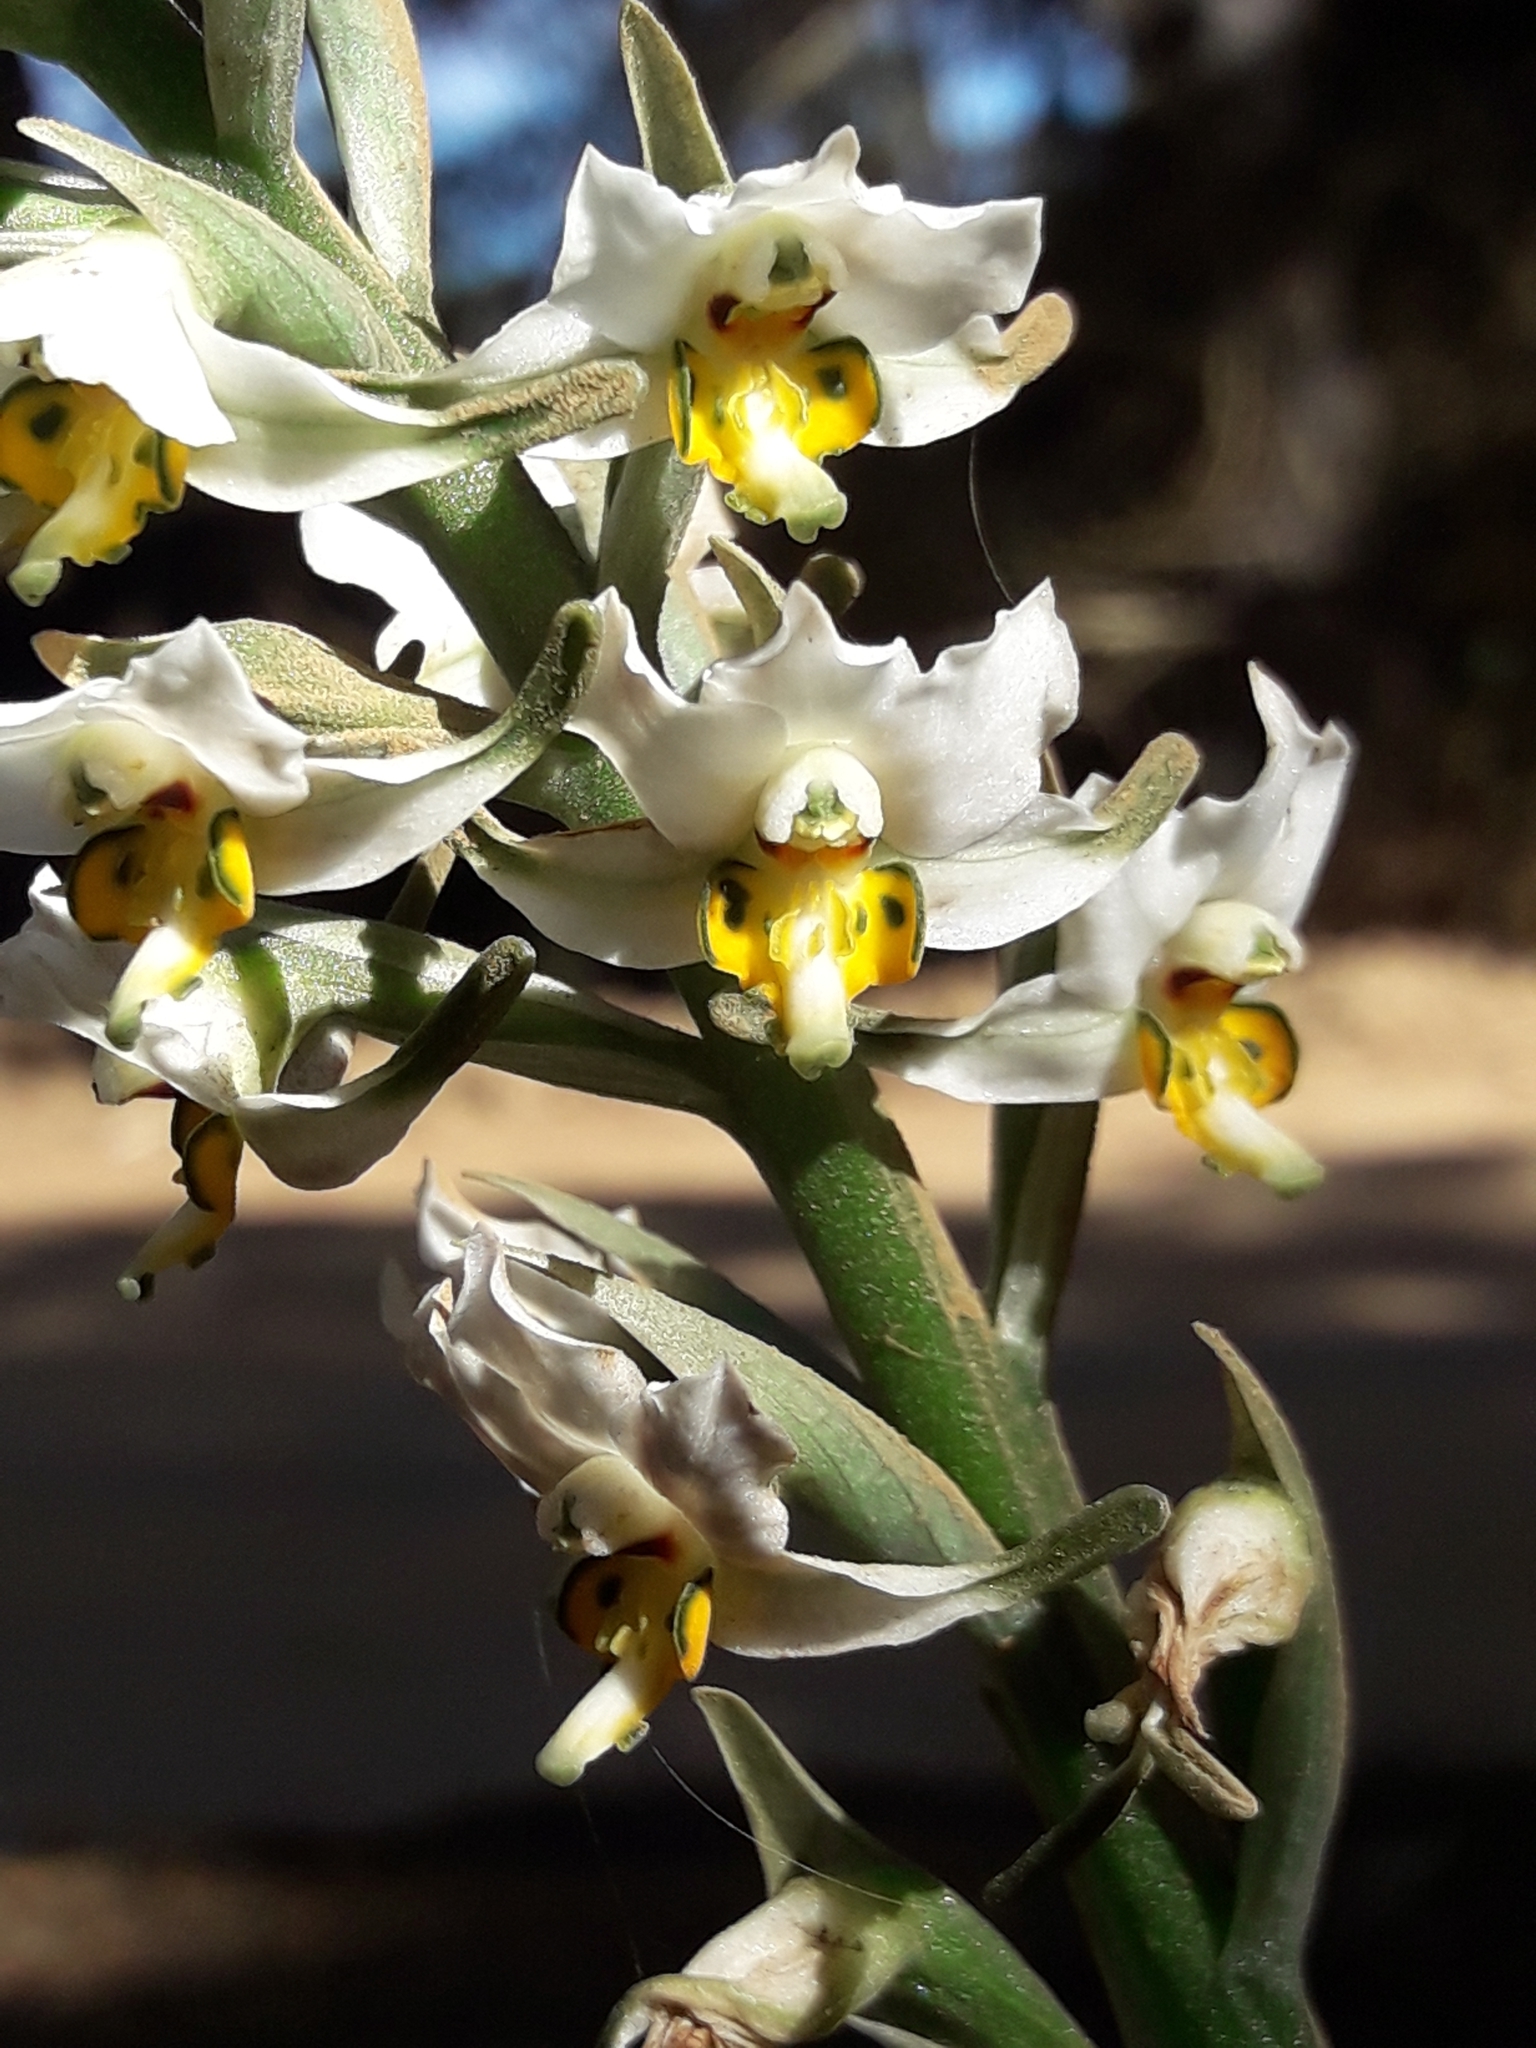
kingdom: Plantae
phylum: Tracheophyta
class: Liliopsida
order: Asparagales
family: Orchidaceae
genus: Gavilea
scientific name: Gavilea longibracteata
